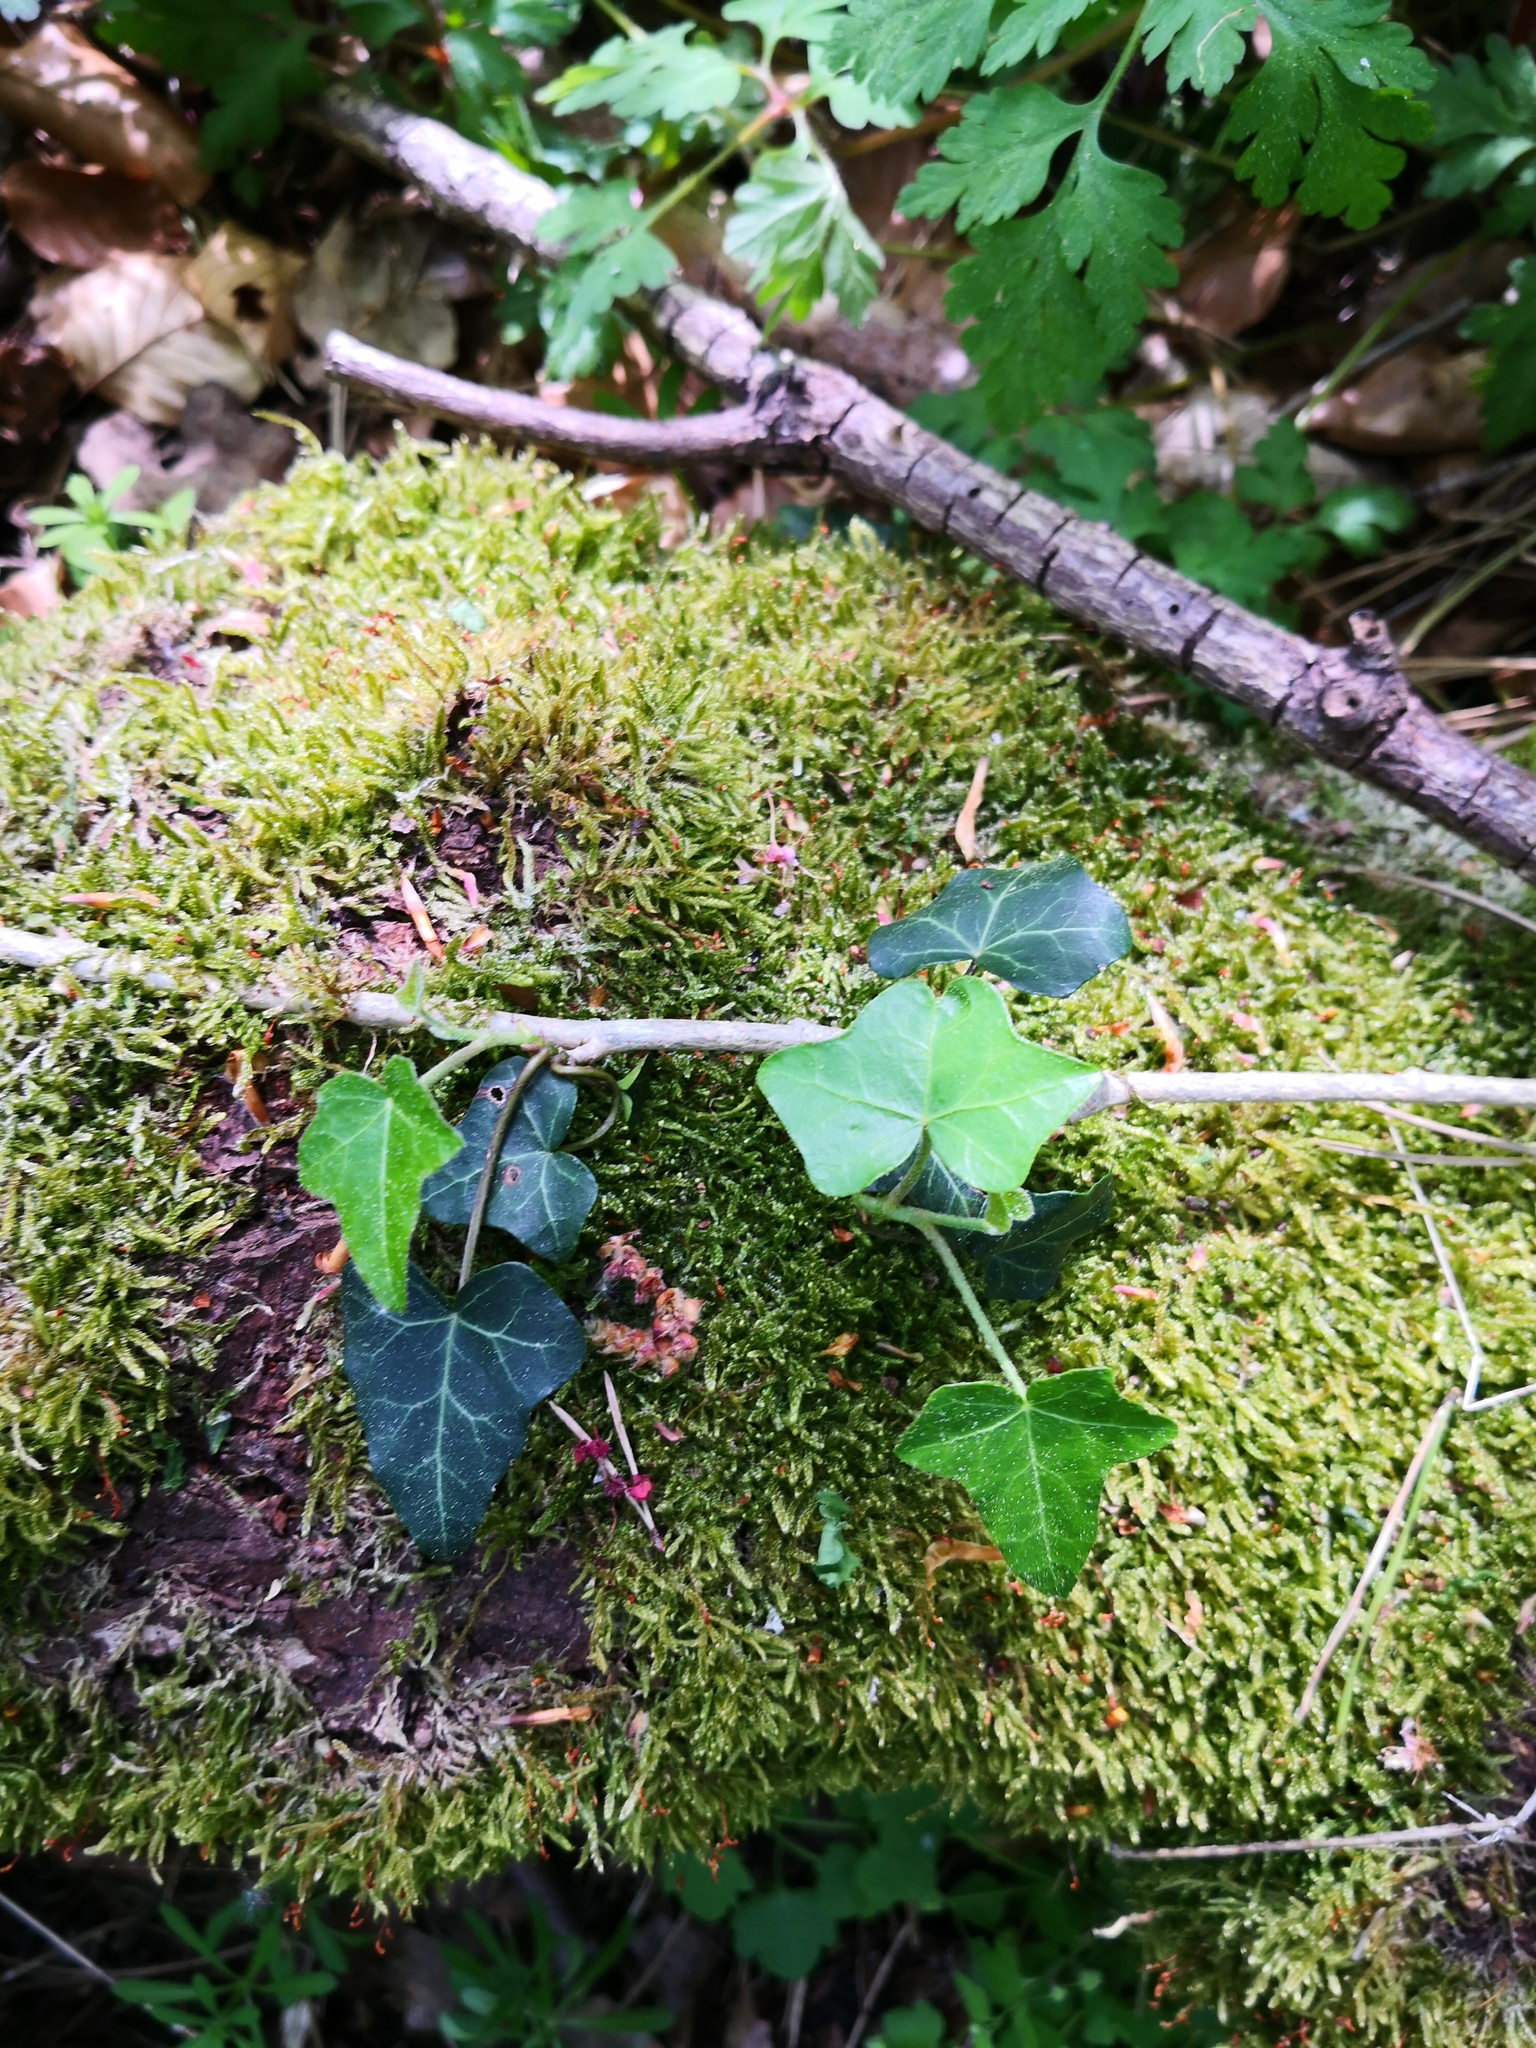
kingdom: Plantae
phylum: Tracheophyta
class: Magnoliopsida
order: Apiales
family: Araliaceae
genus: Hedera
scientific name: Hedera helix
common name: Ivy
